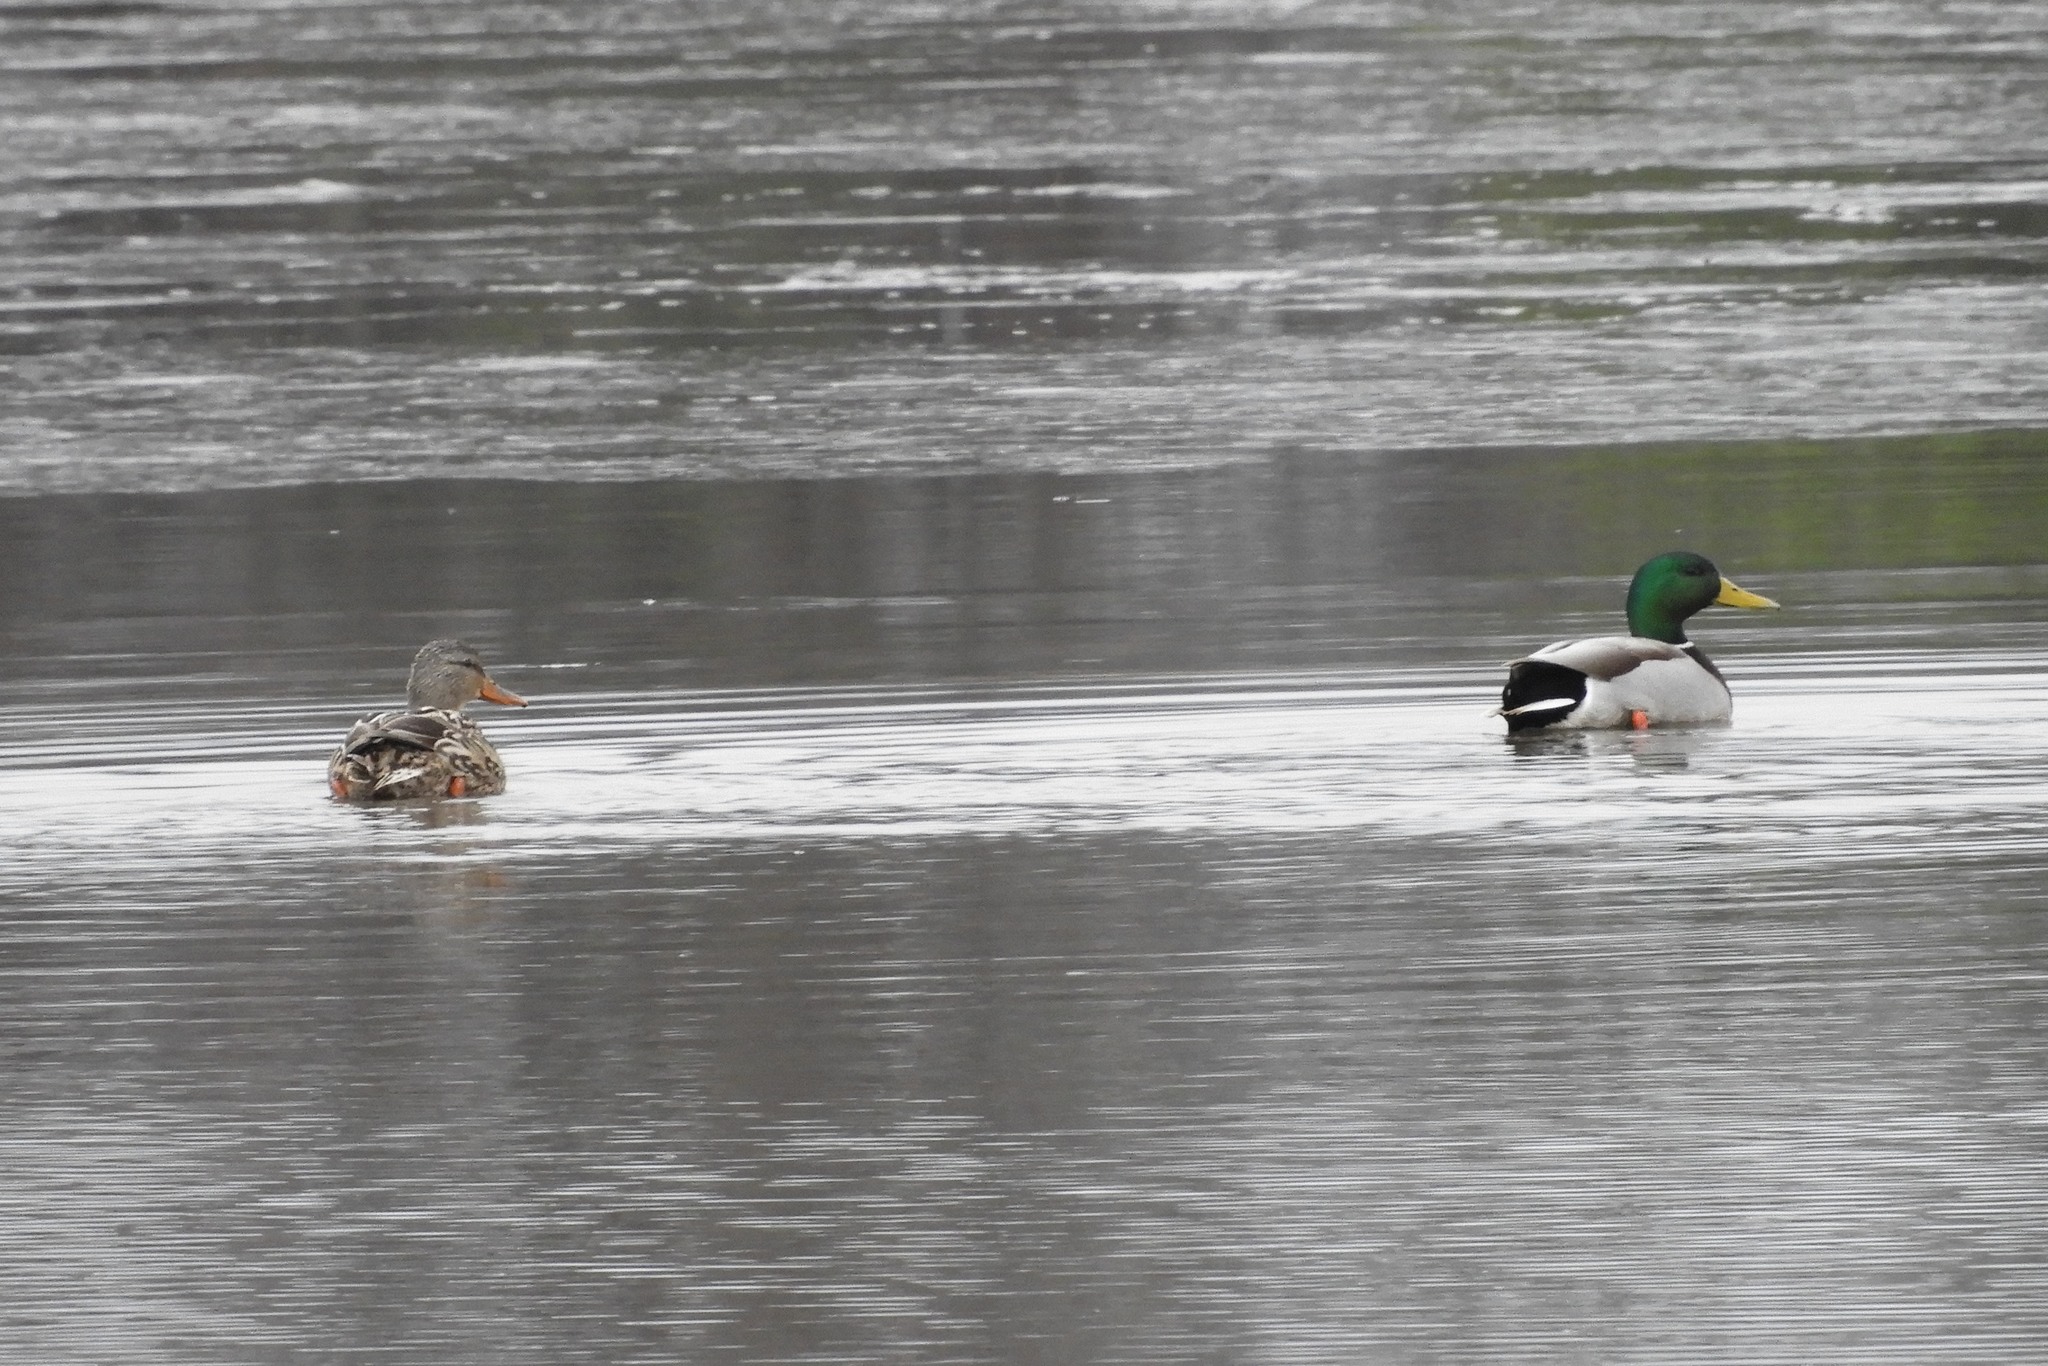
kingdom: Animalia
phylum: Chordata
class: Aves
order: Anseriformes
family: Anatidae
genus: Anas
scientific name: Anas platyrhynchos
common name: Mallard
